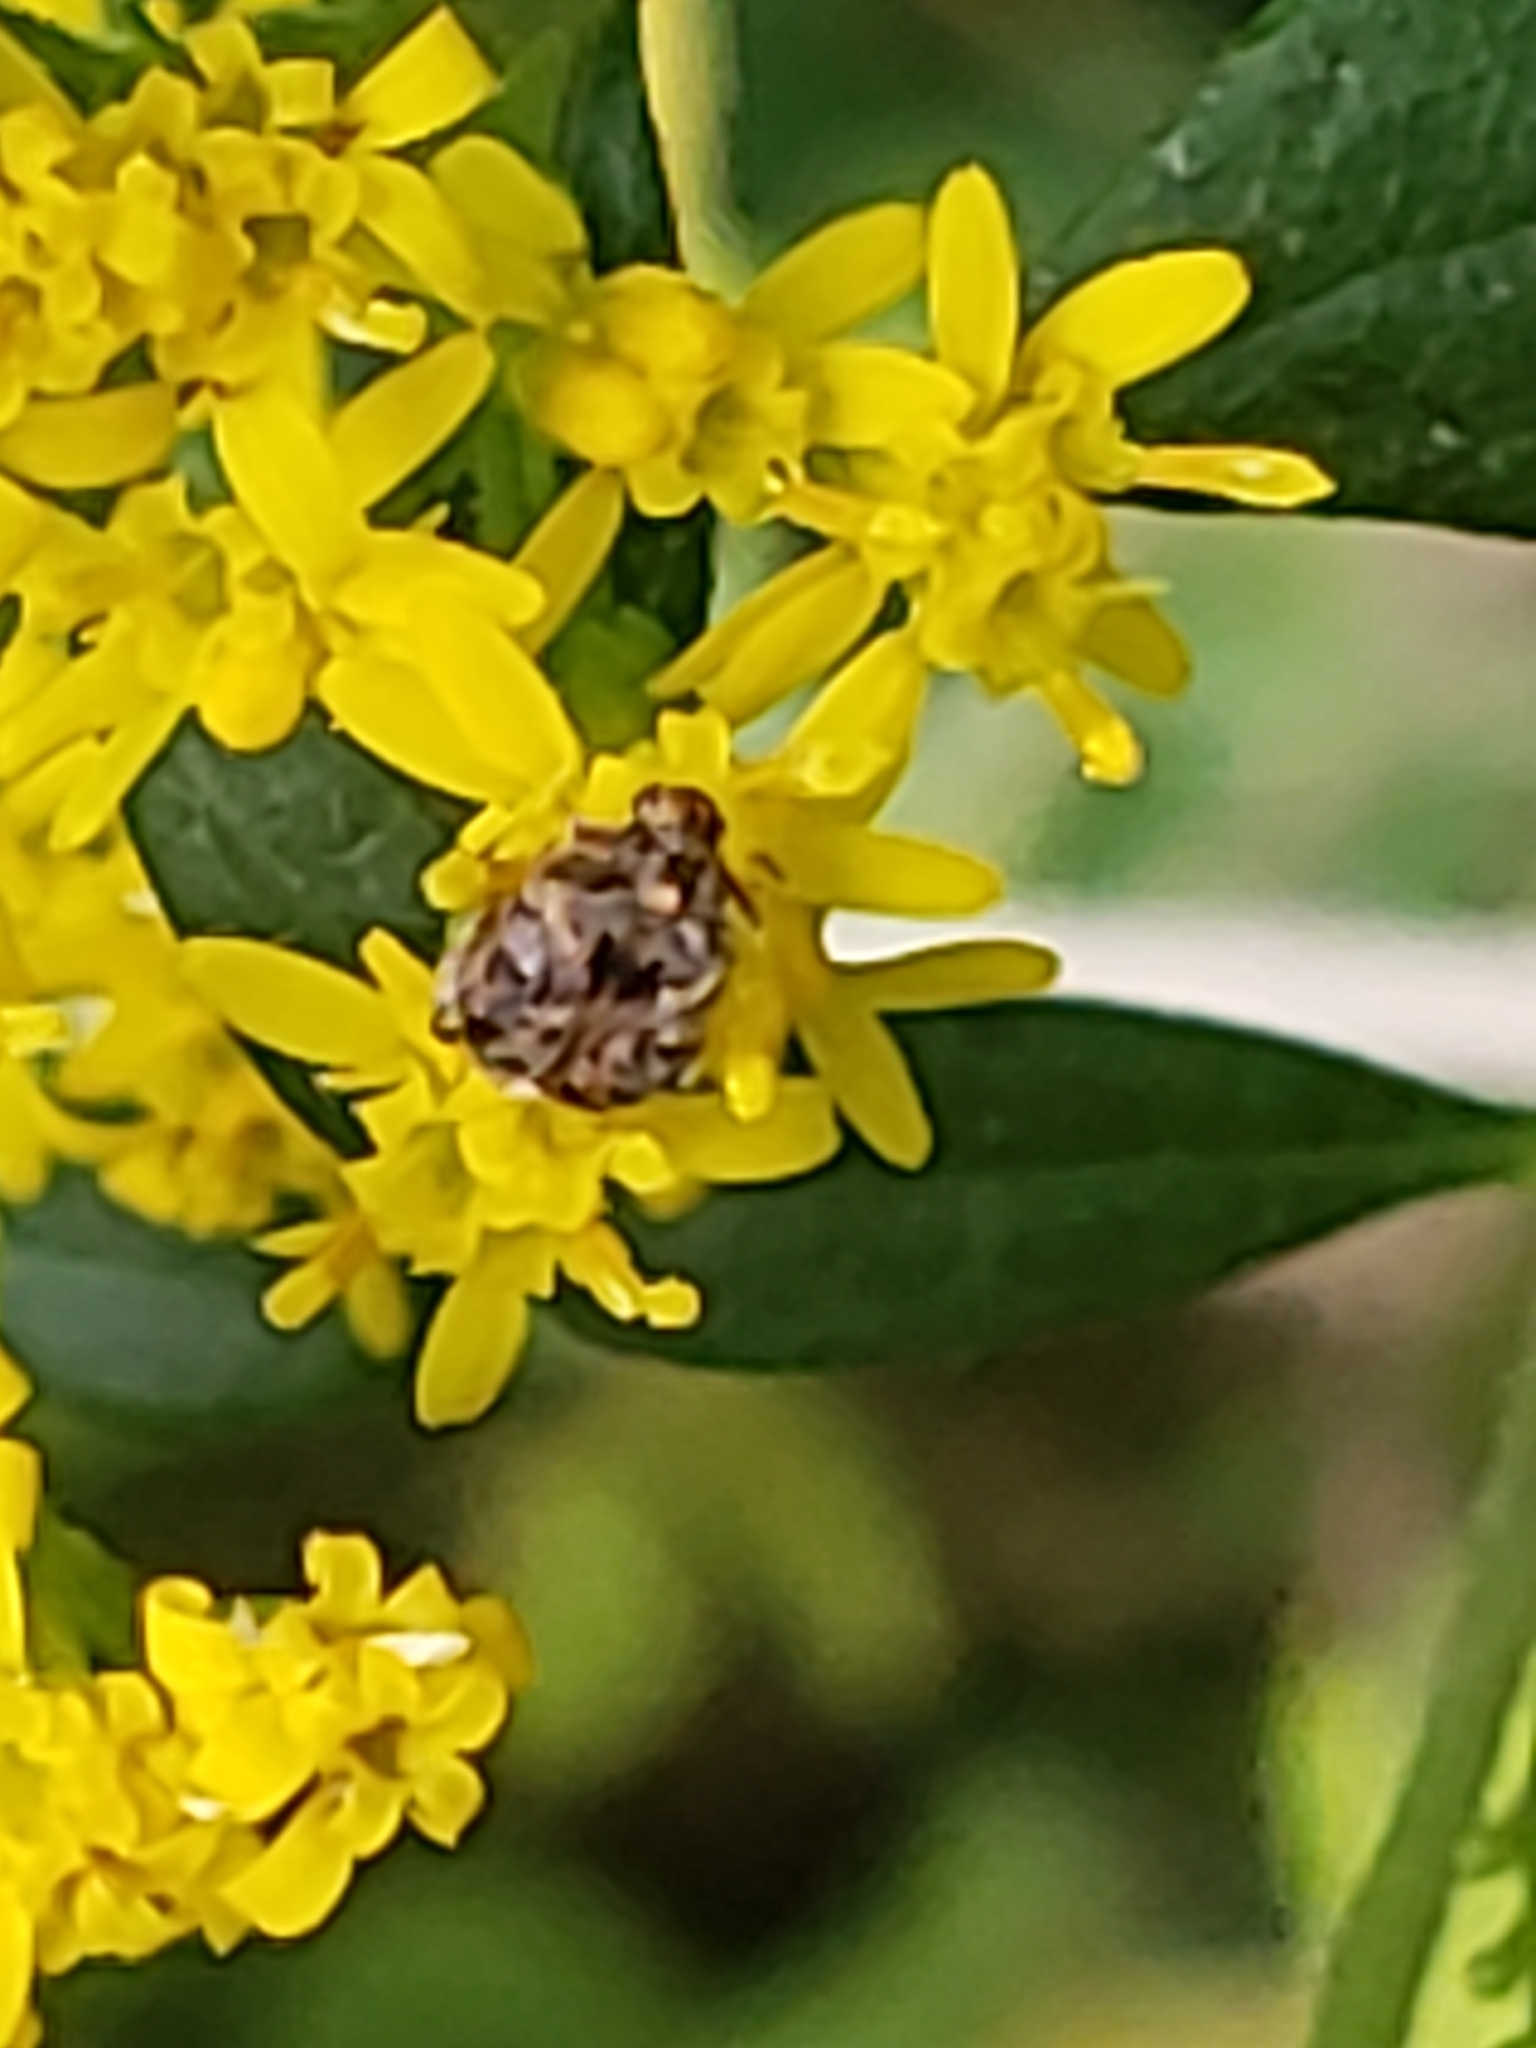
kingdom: Animalia
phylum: Arthropoda
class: Insecta
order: Coleoptera
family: Chrysomelidae
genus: Gibbobruchus
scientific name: Gibbobruchus mimus
